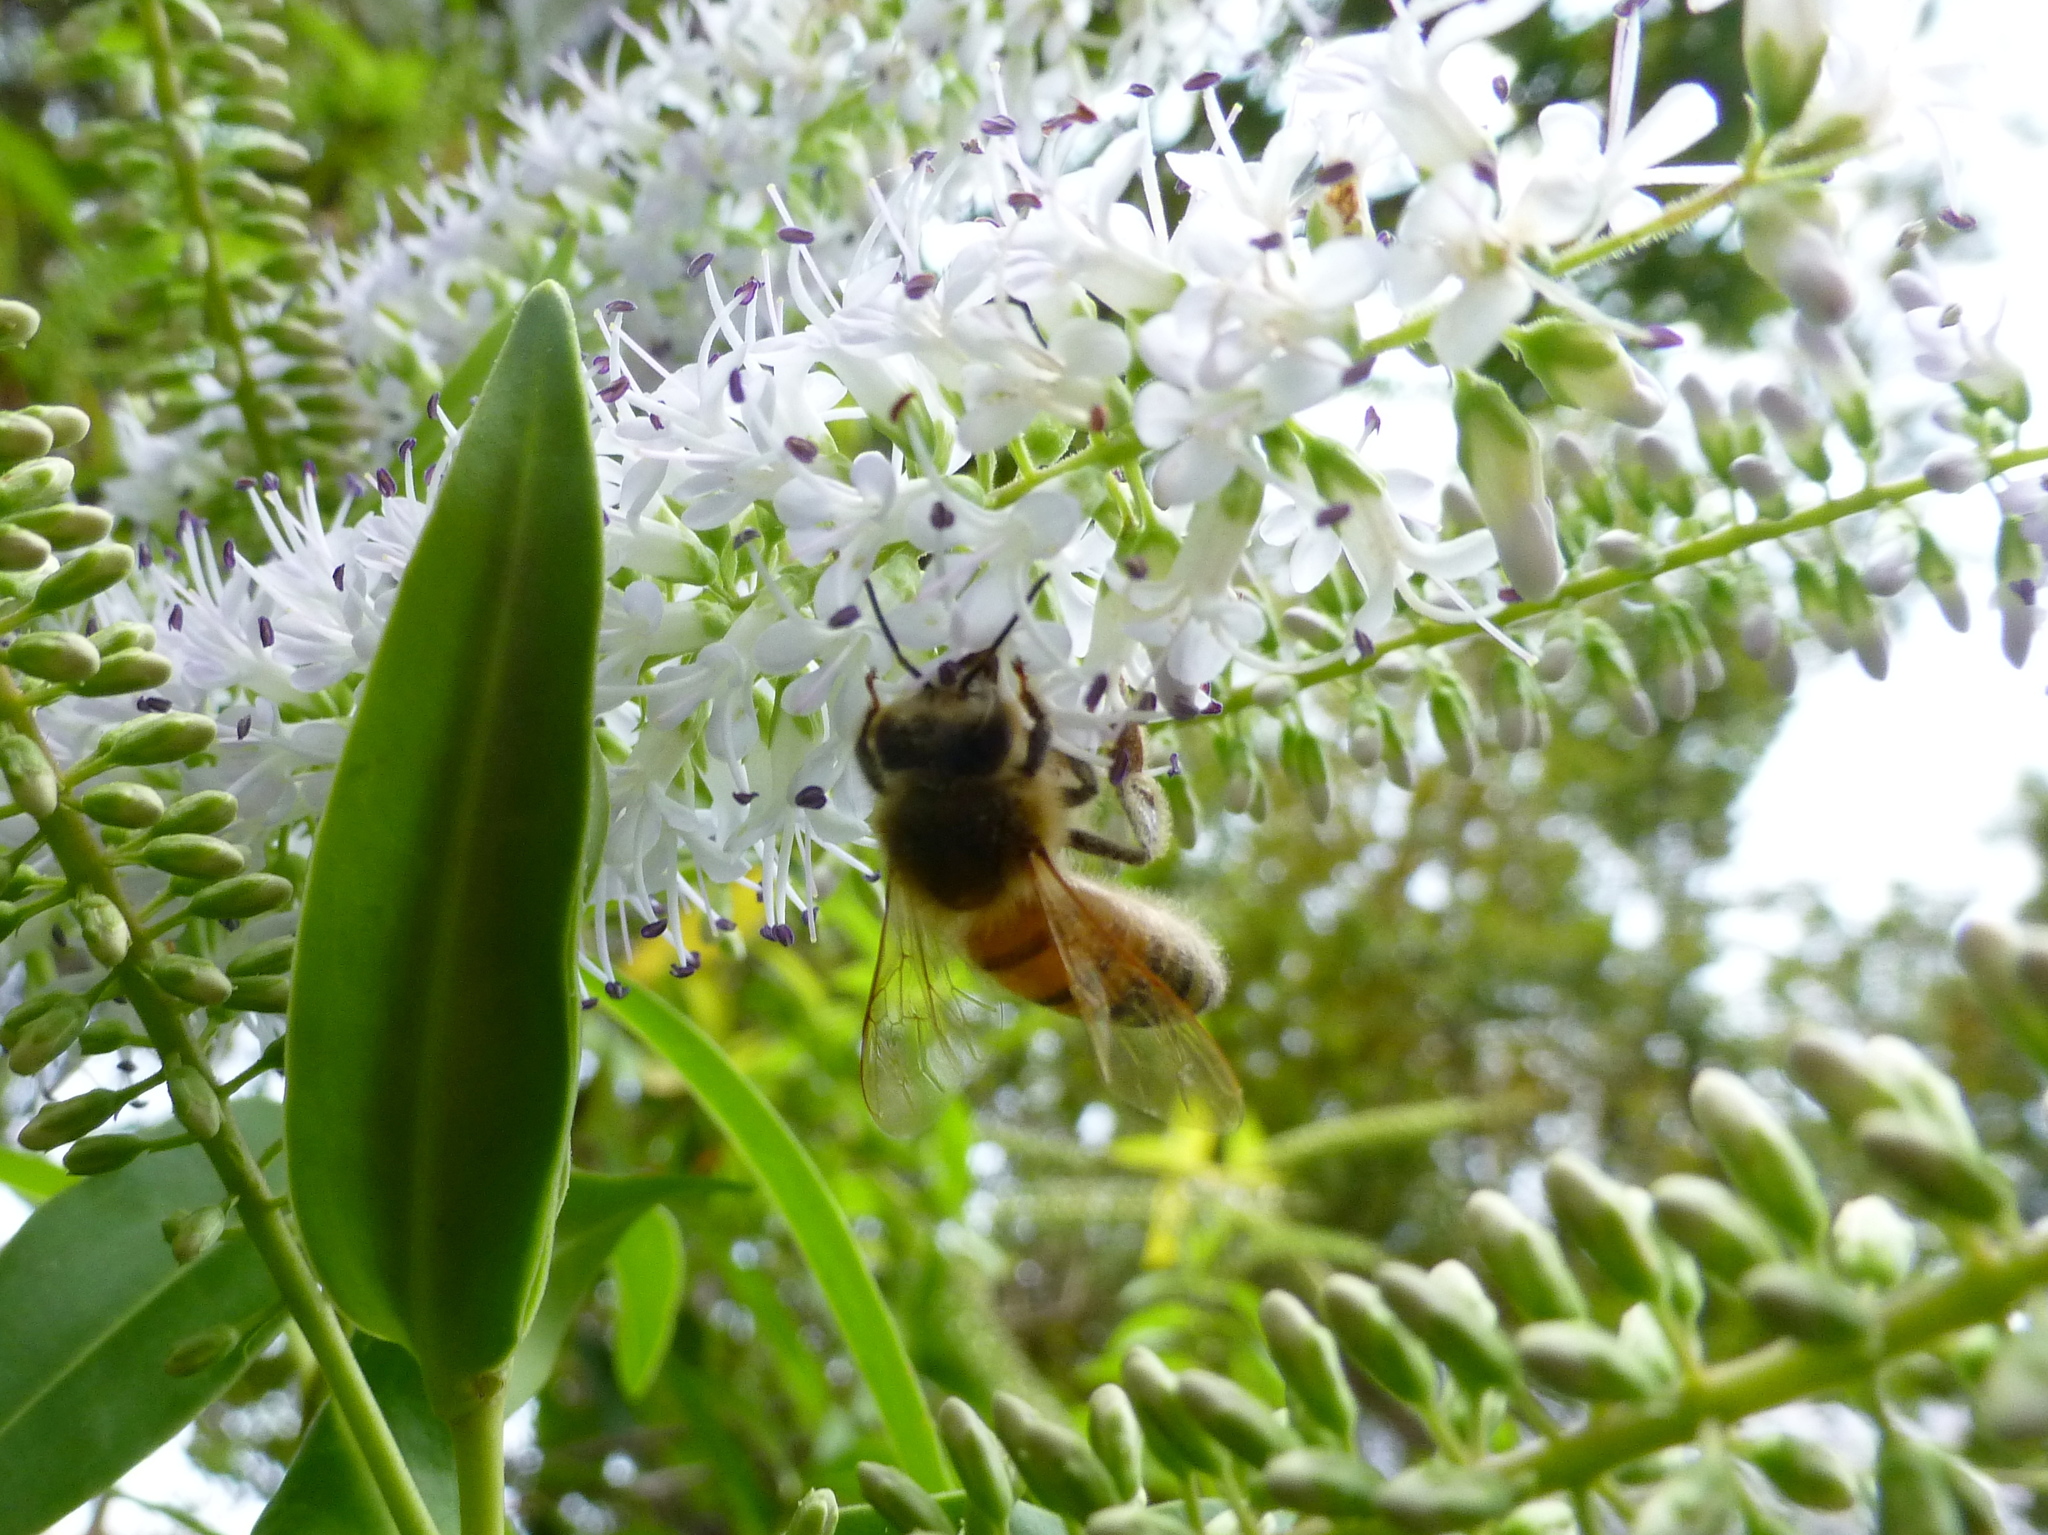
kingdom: Animalia
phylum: Arthropoda
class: Insecta
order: Hymenoptera
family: Apidae
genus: Apis
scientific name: Apis mellifera
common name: Honey bee
